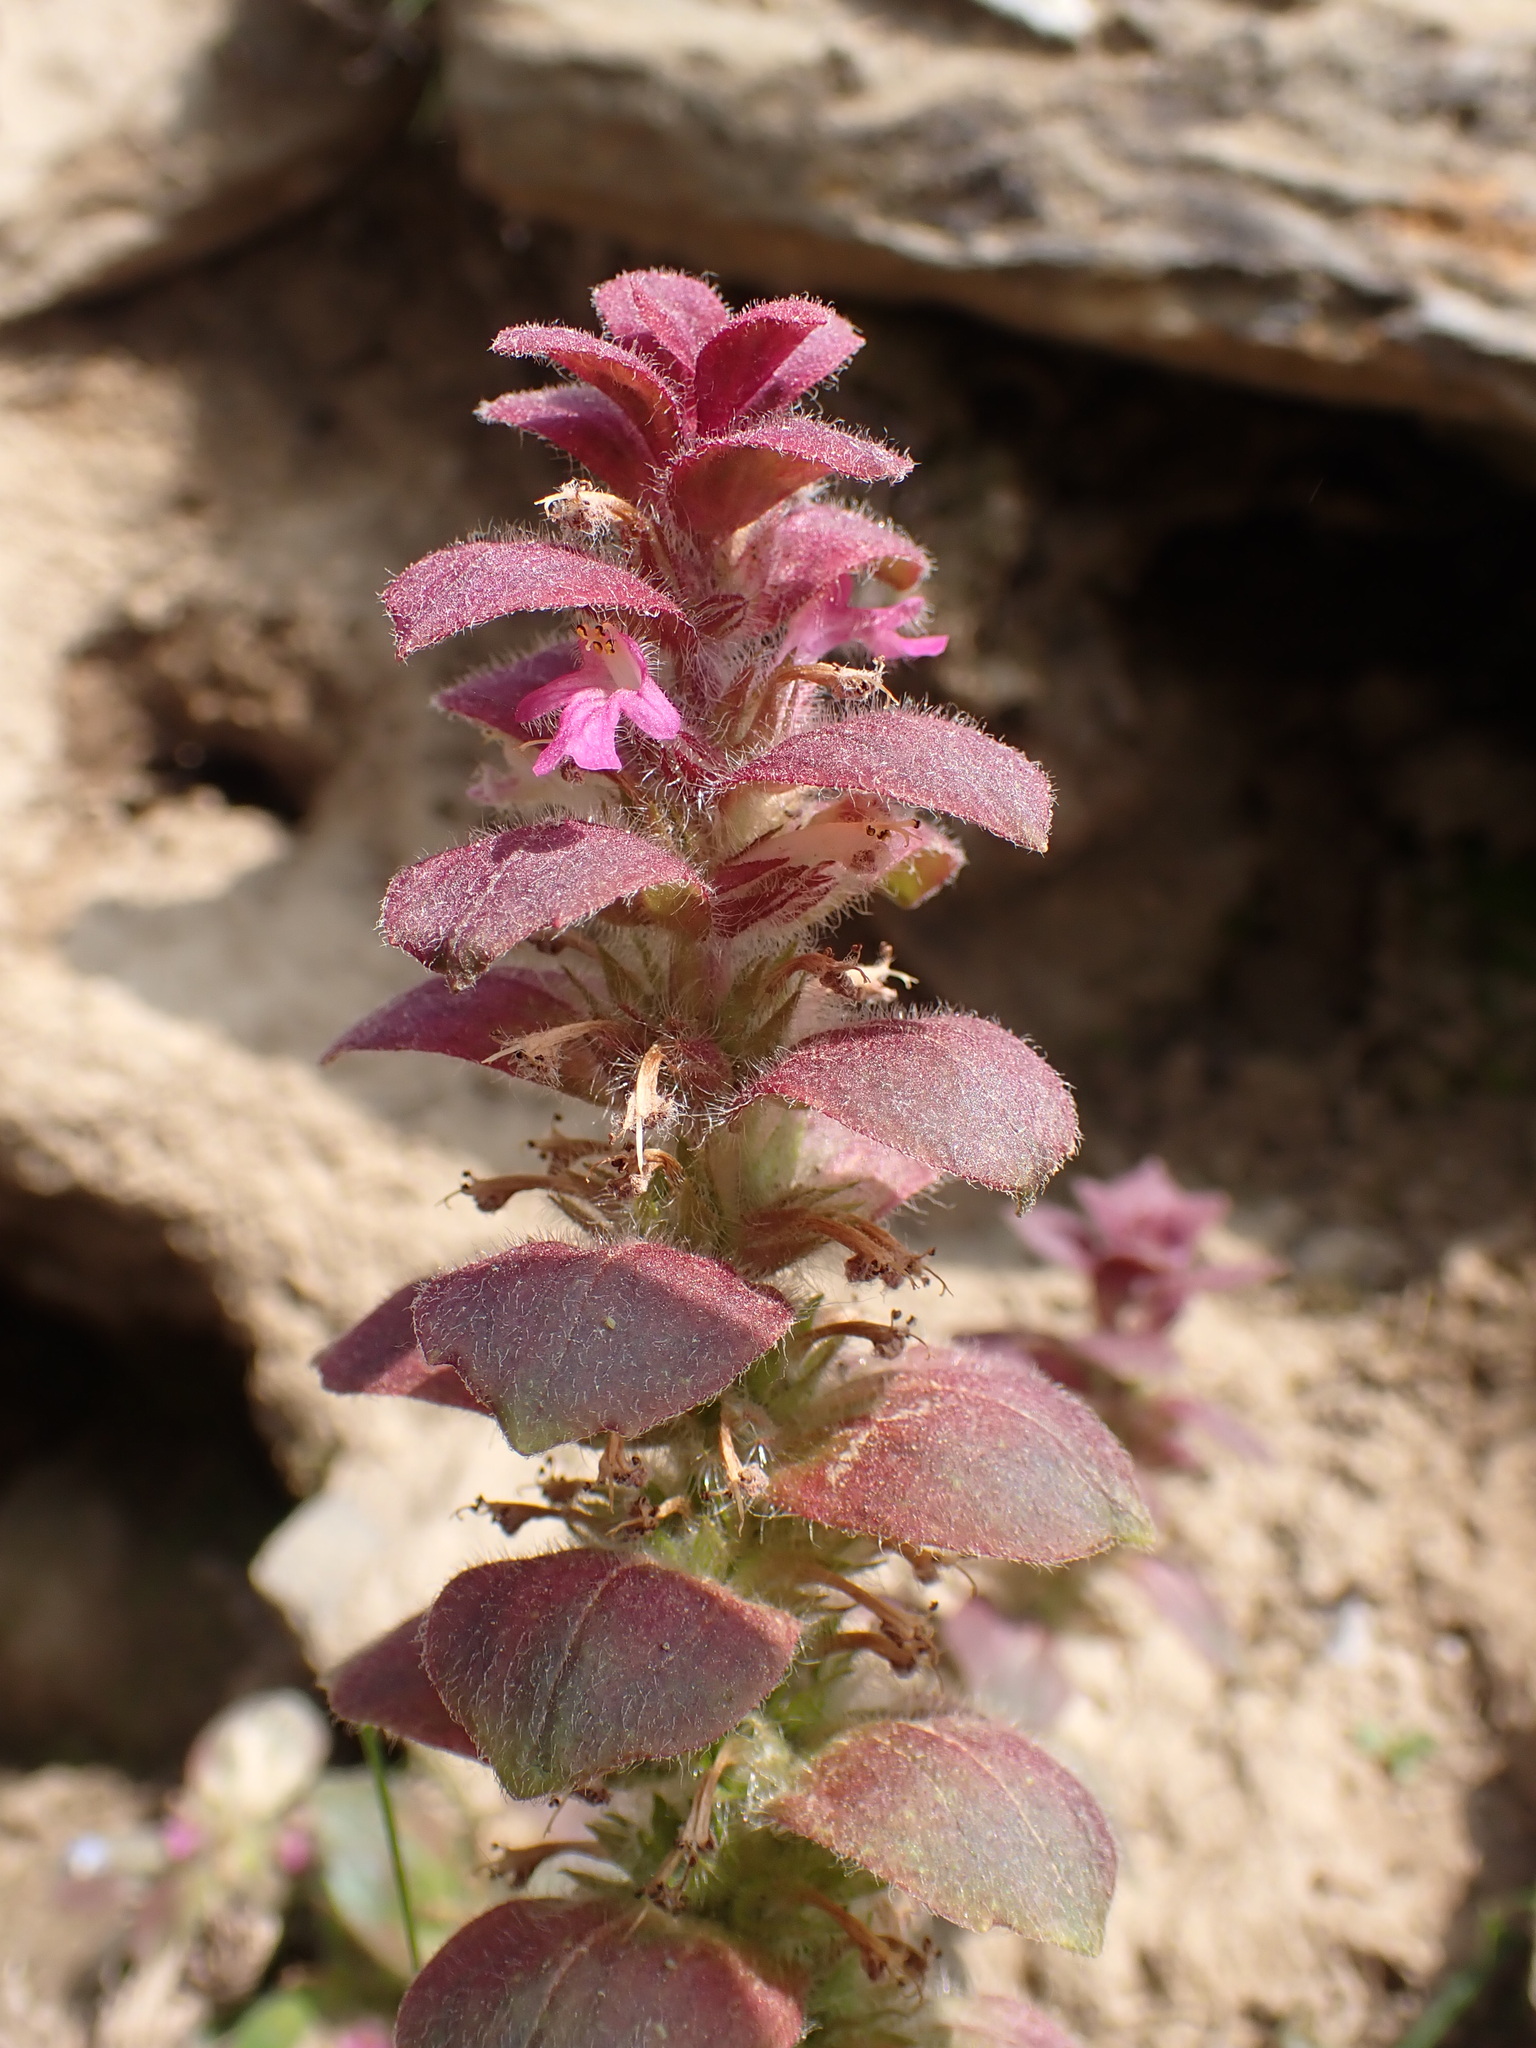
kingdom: Plantae
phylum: Tracheophyta
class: Magnoliopsida
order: Lamiales
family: Lamiaceae
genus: Ajuga
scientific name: Ajuga pyramidalis
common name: Pyramid bugle
